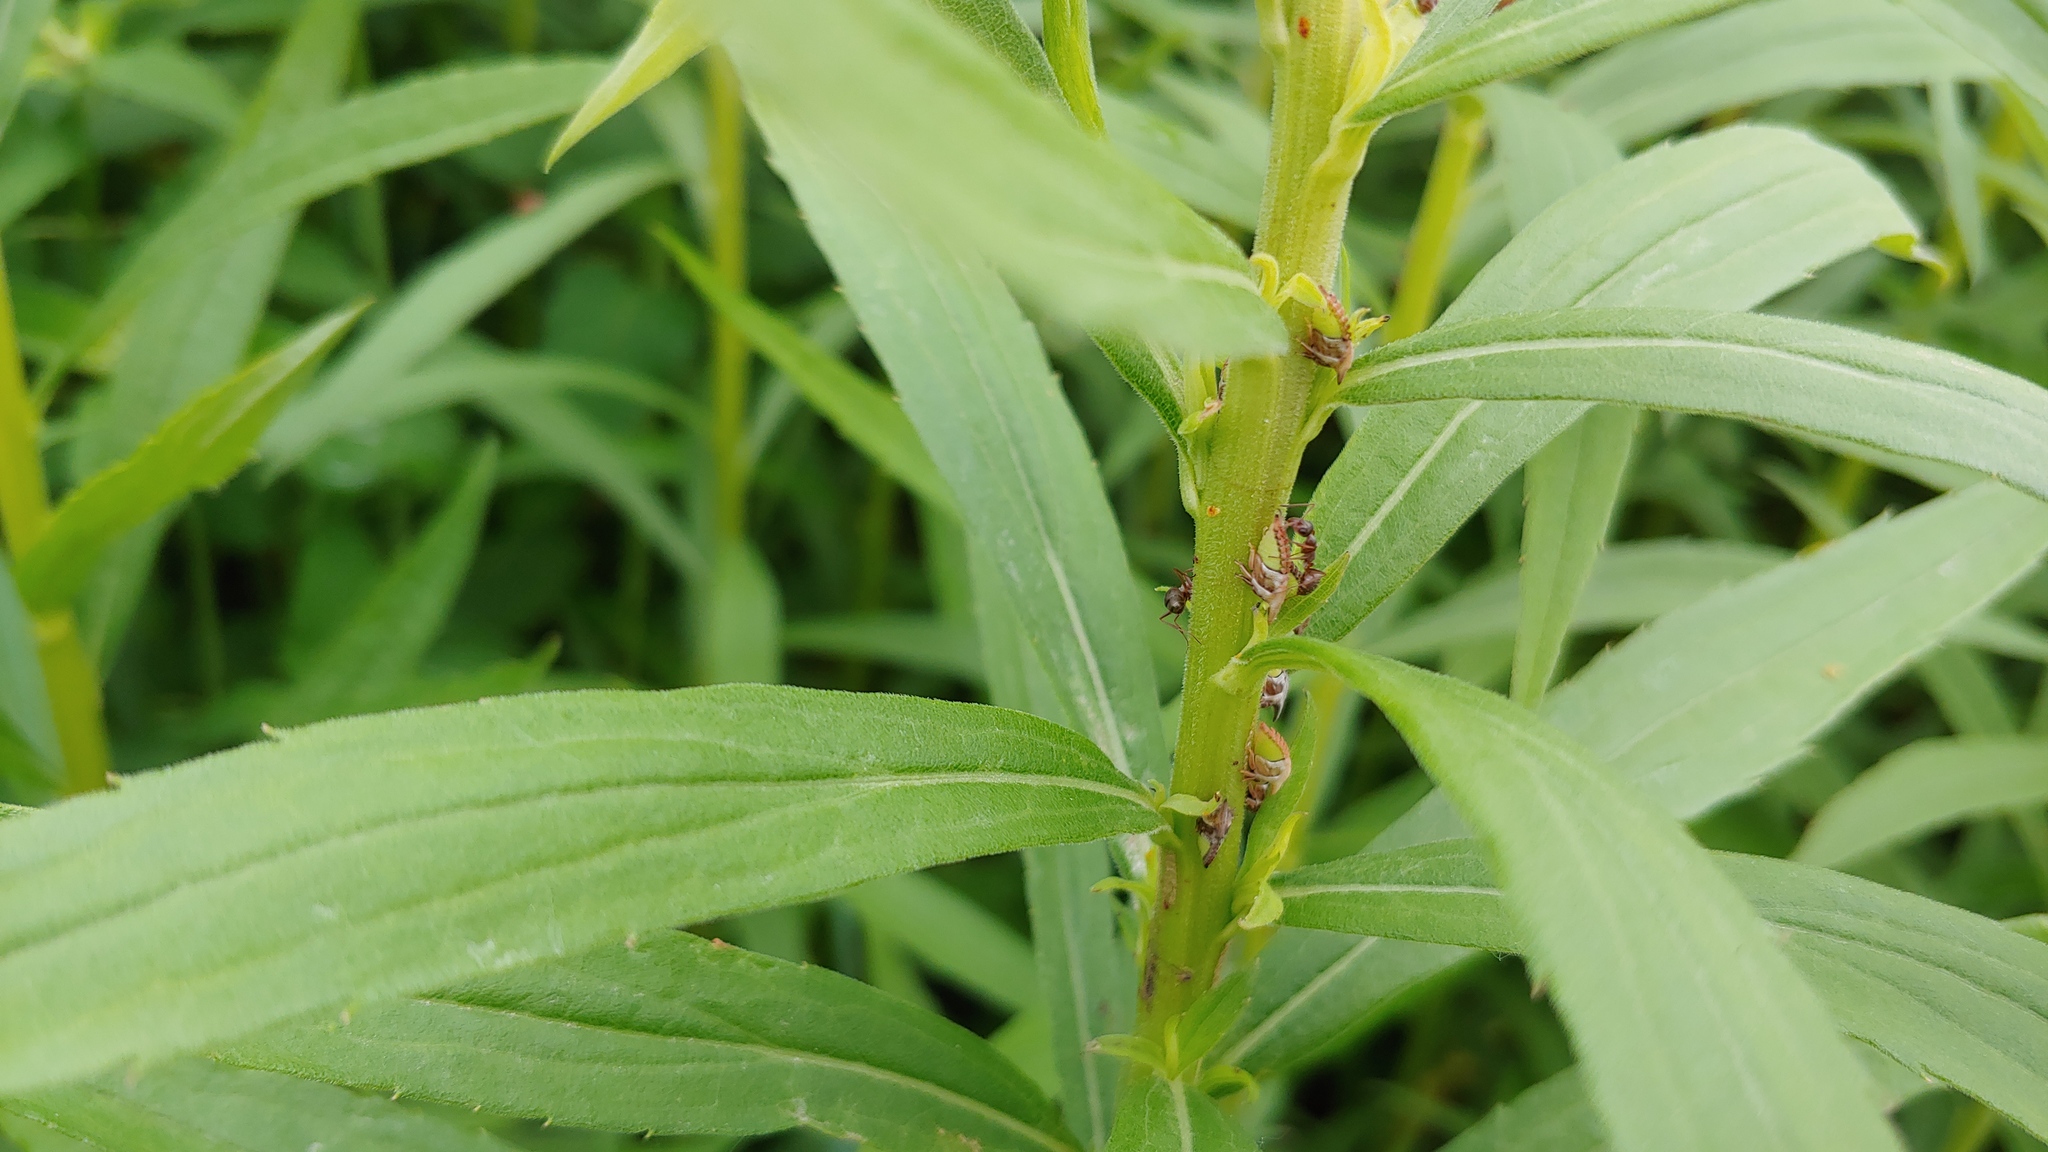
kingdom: Animalia
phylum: Arthropoda
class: Insecta
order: Hemiptera
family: Membracidae
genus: Enchenopa
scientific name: Enchenopa latipes
